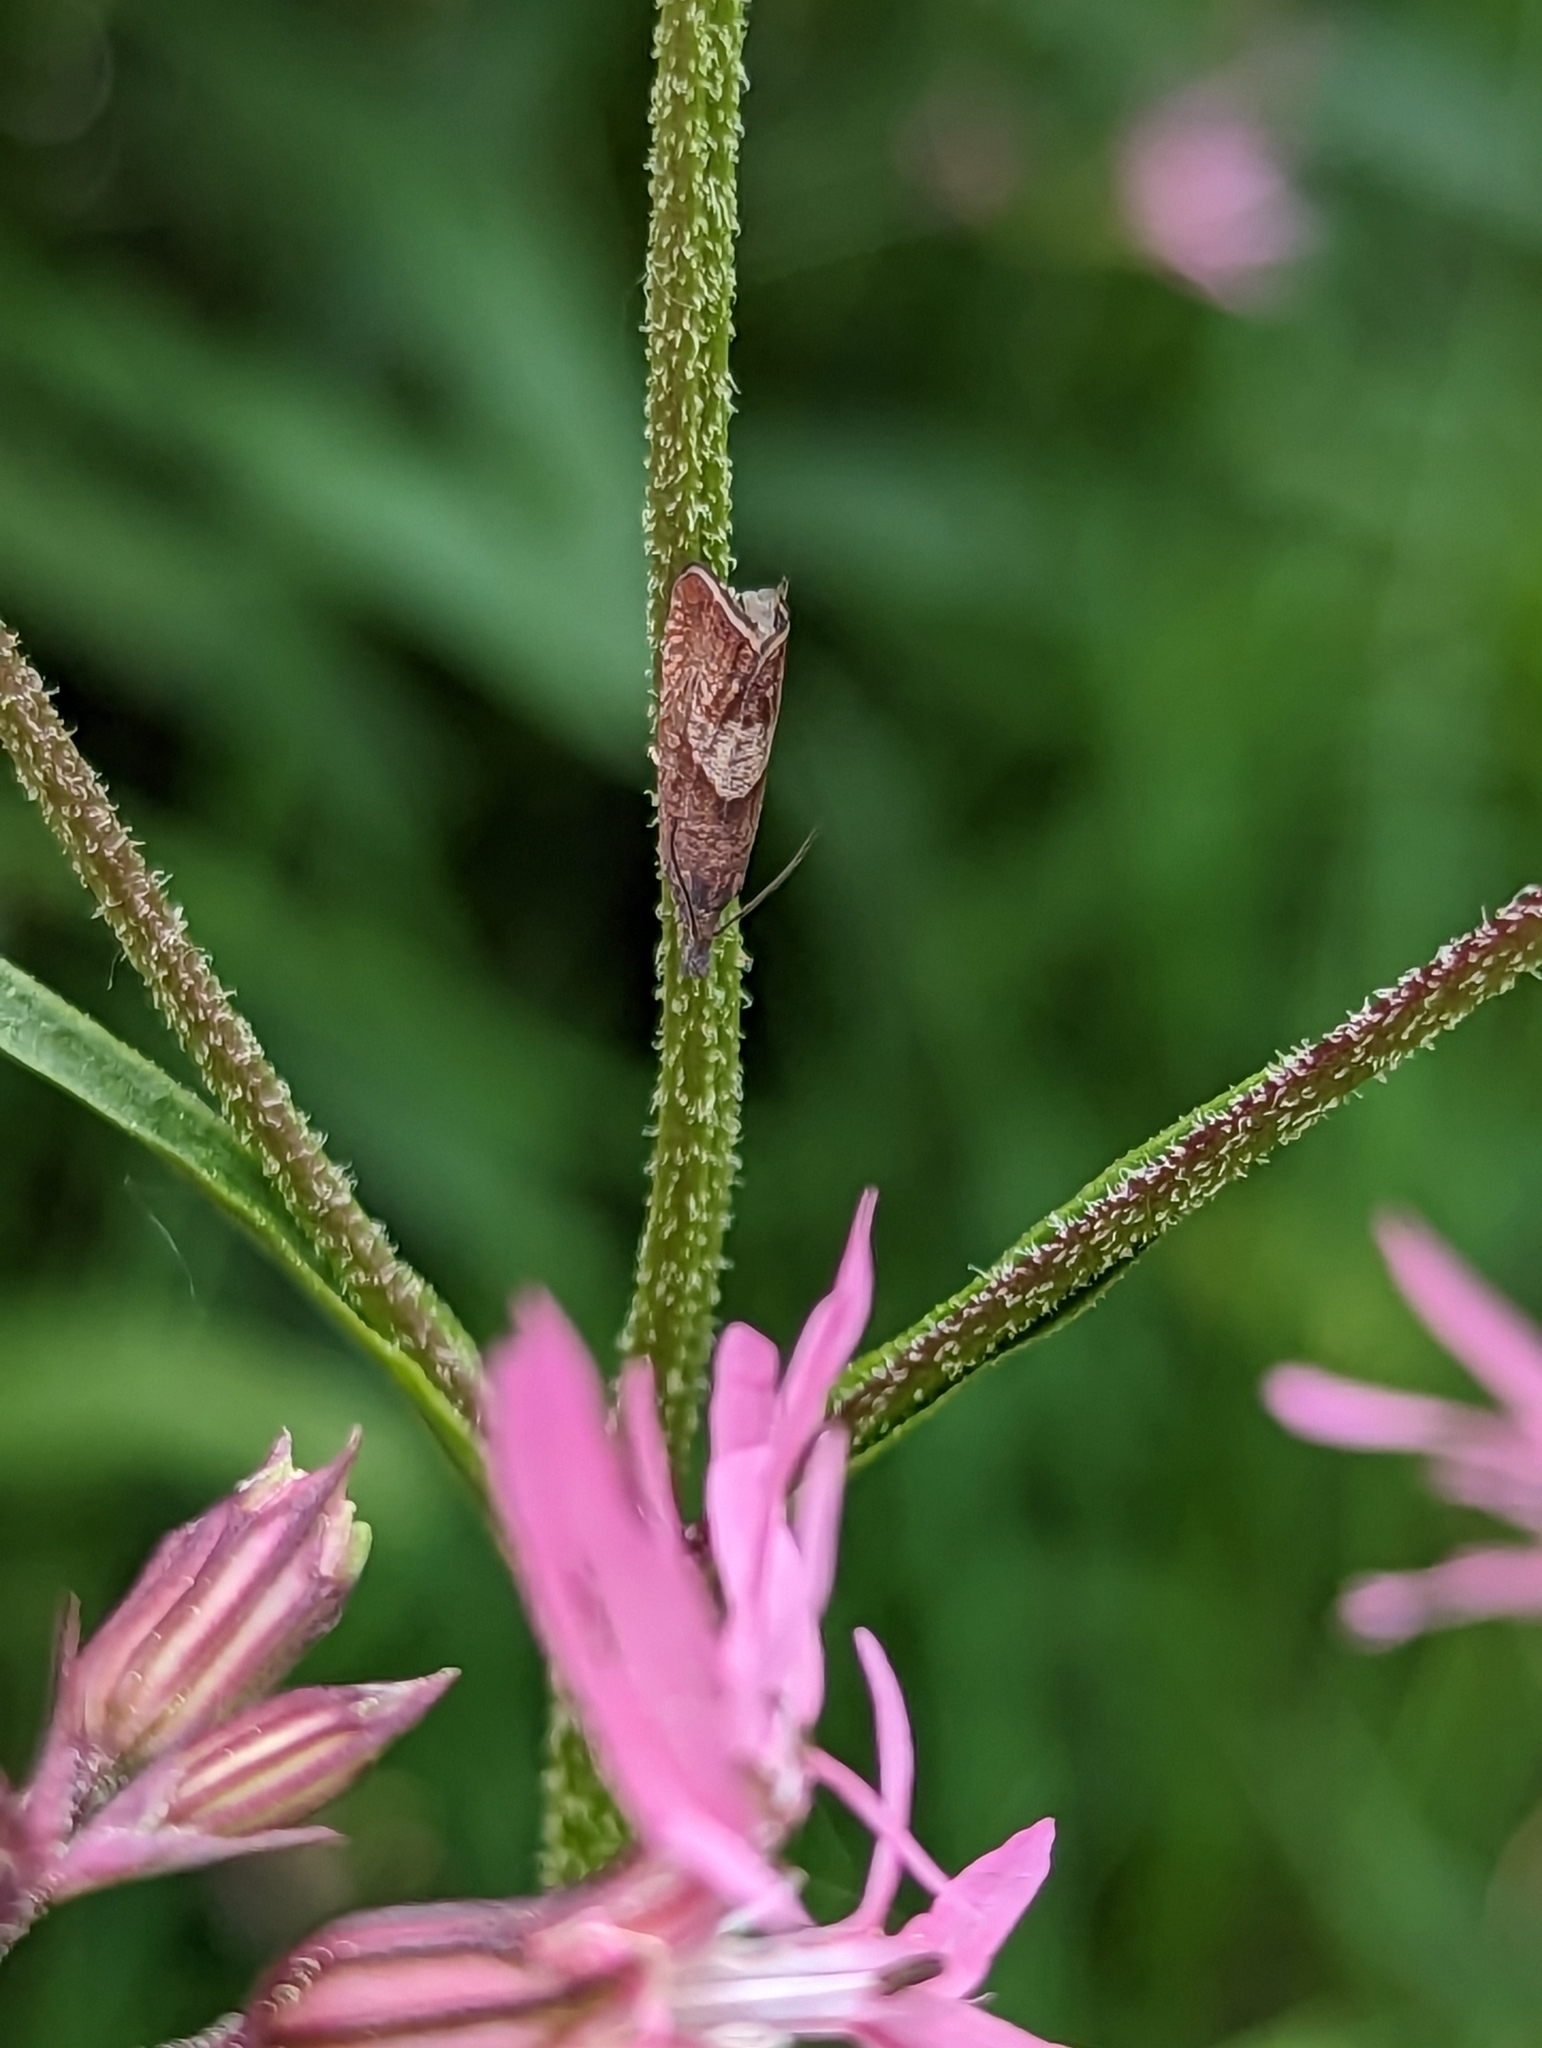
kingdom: Animalia
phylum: Arthropoda
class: Insecta
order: Lepidoptera
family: Tortricidae
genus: Dichrorampha
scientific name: Dichrorampha acuminatana
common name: Sharp-winged drill
